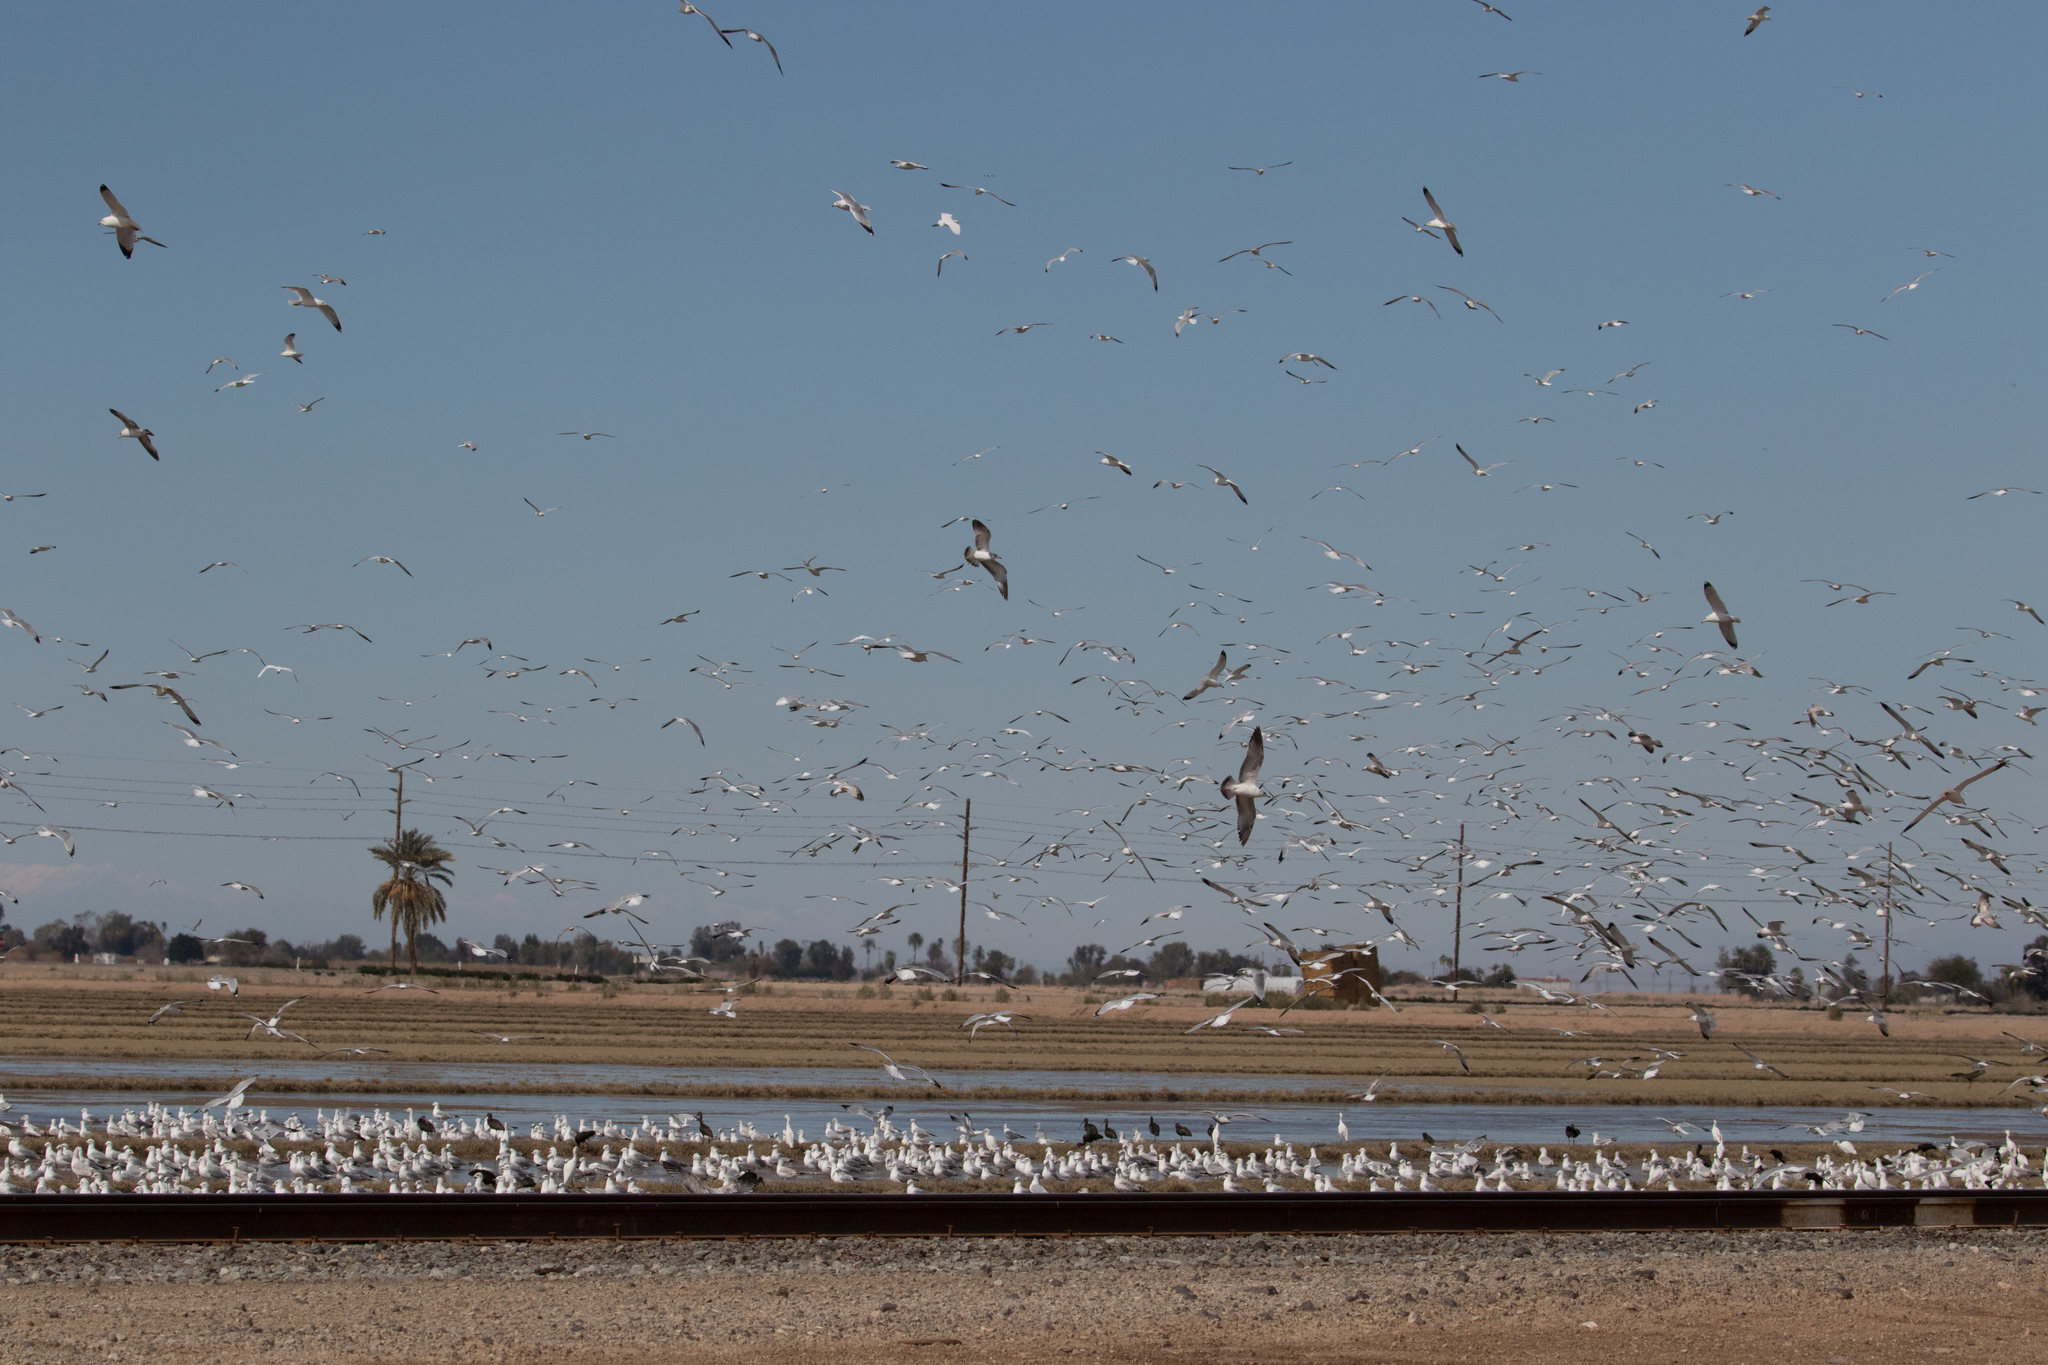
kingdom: Animalia
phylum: Chordata
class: Aves
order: Charadriiformes
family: Laridae
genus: Larus
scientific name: Larus delawarensis
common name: Ring-billed gull
